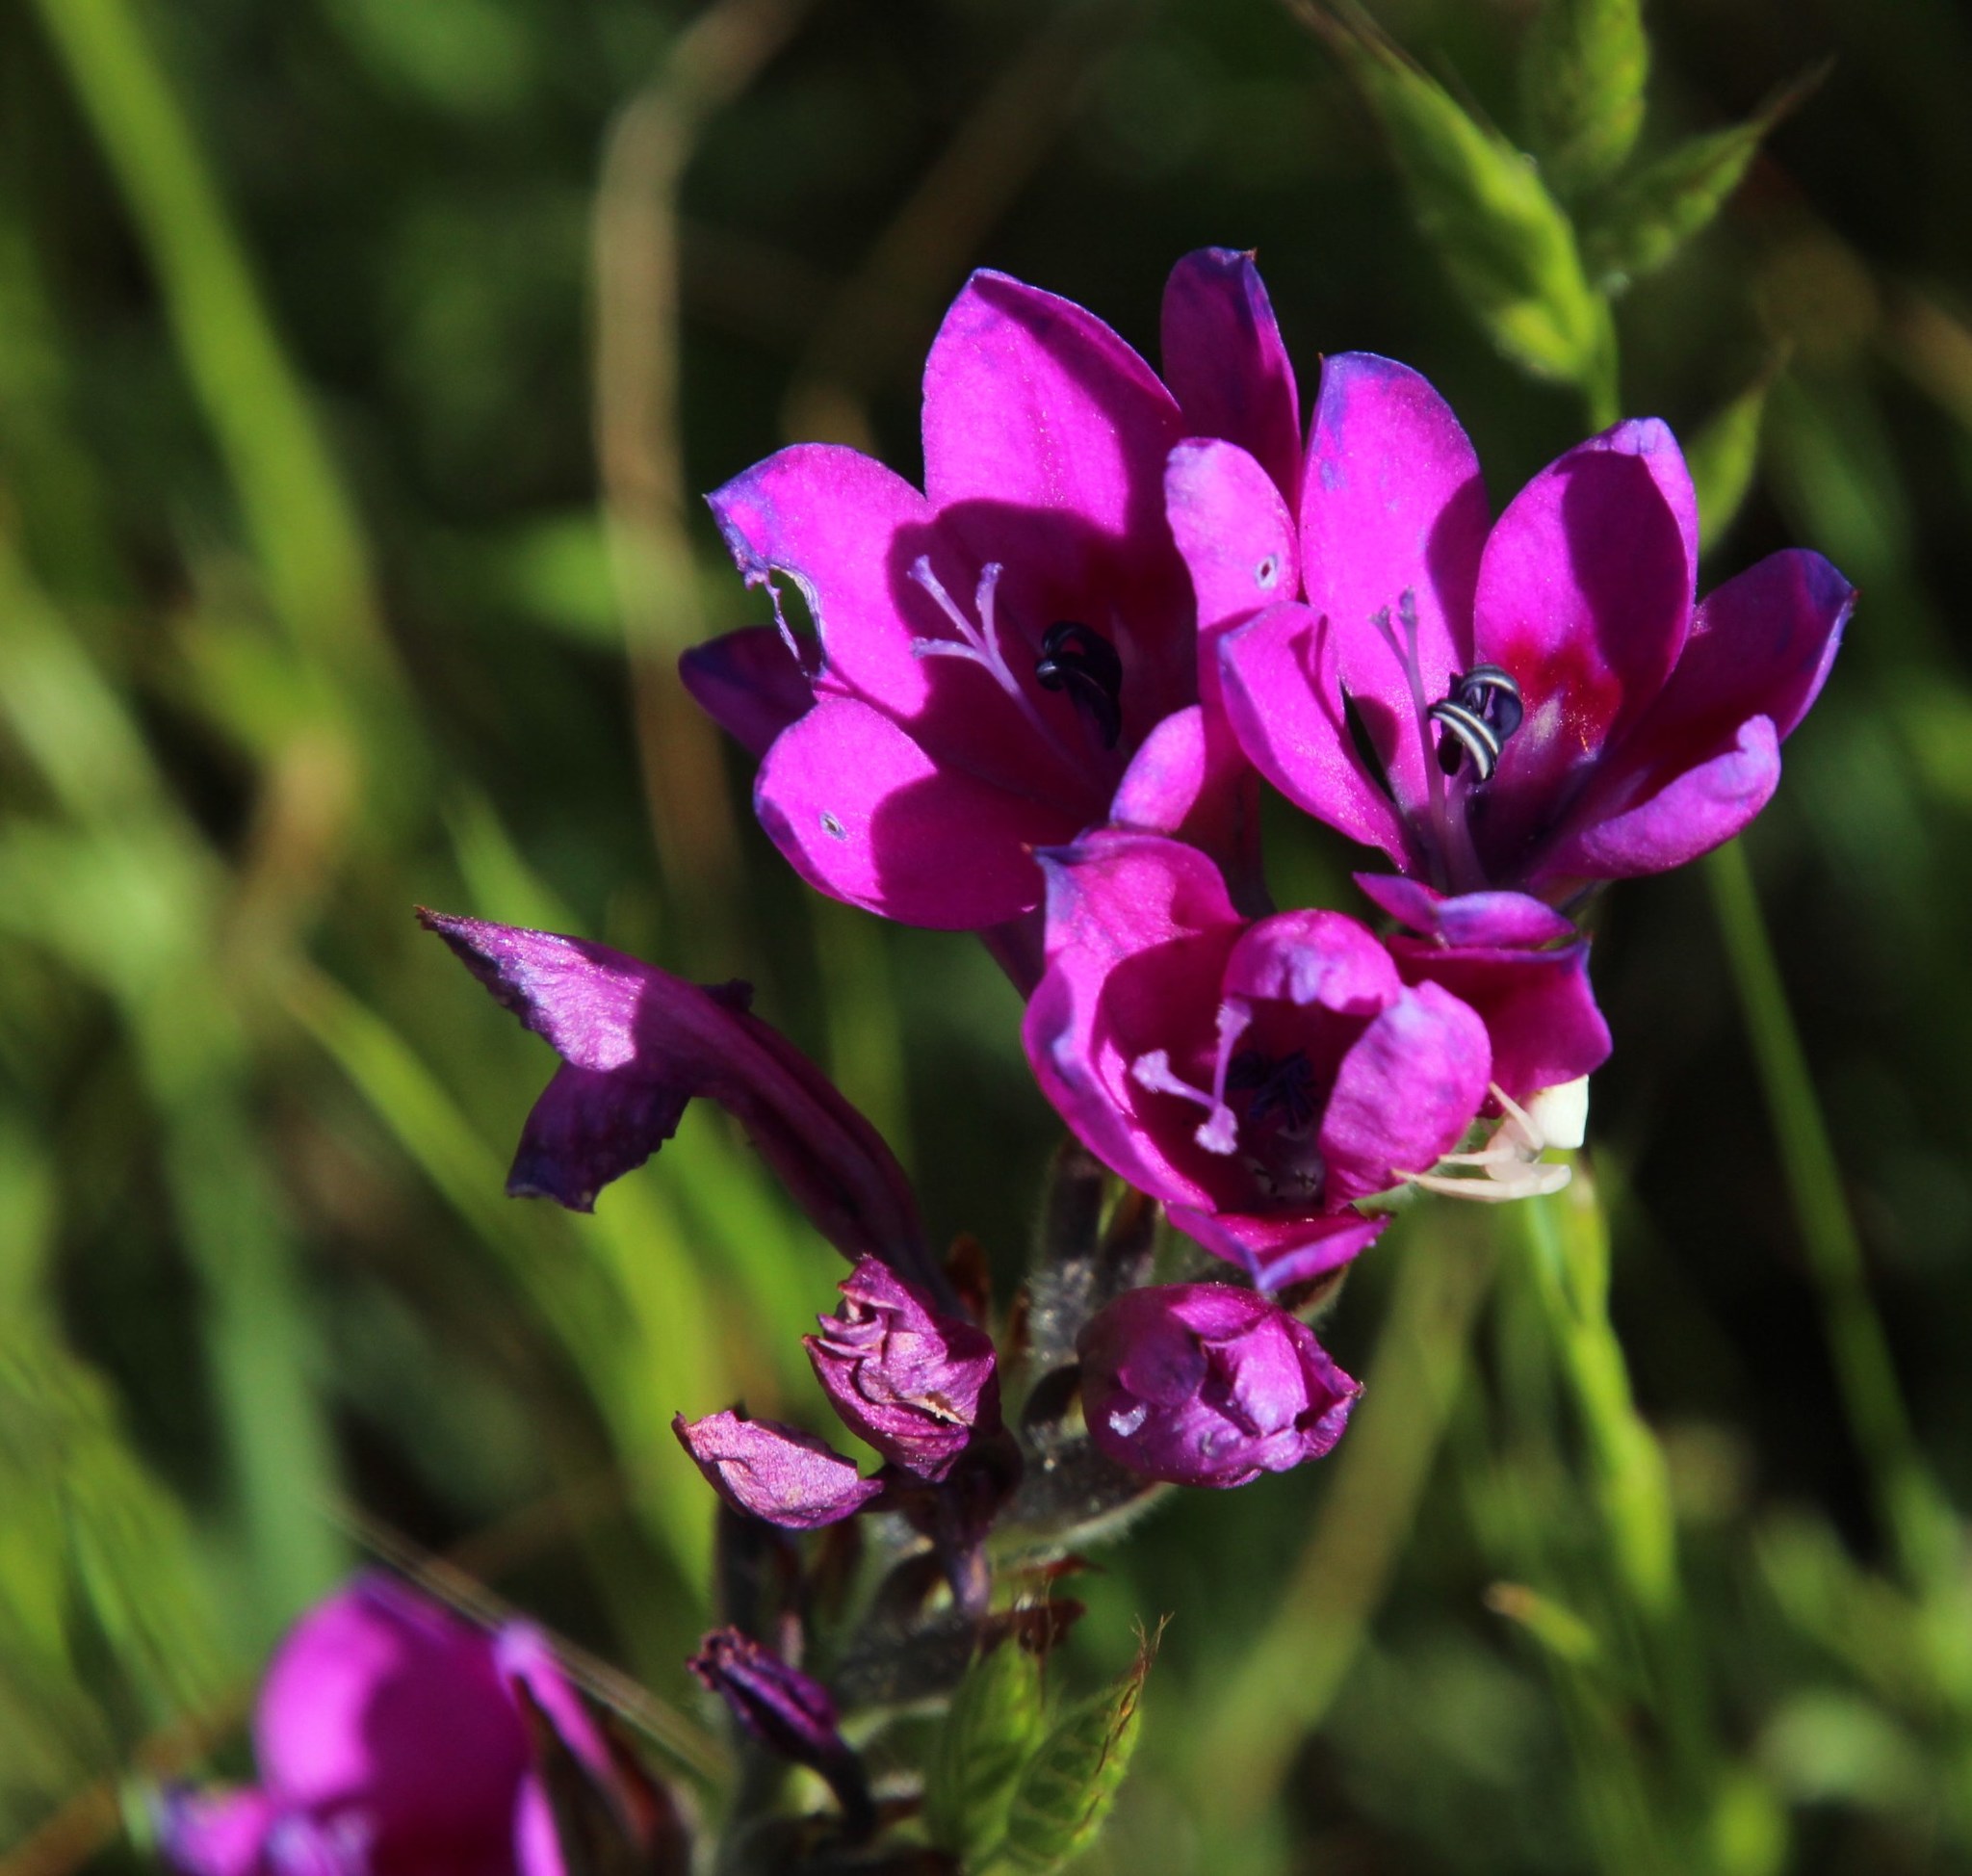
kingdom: Plantae
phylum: Tracheophyta
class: Liliopsida
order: Asparagales
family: Iridaceae
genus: Babiana
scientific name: Babiana villosa
